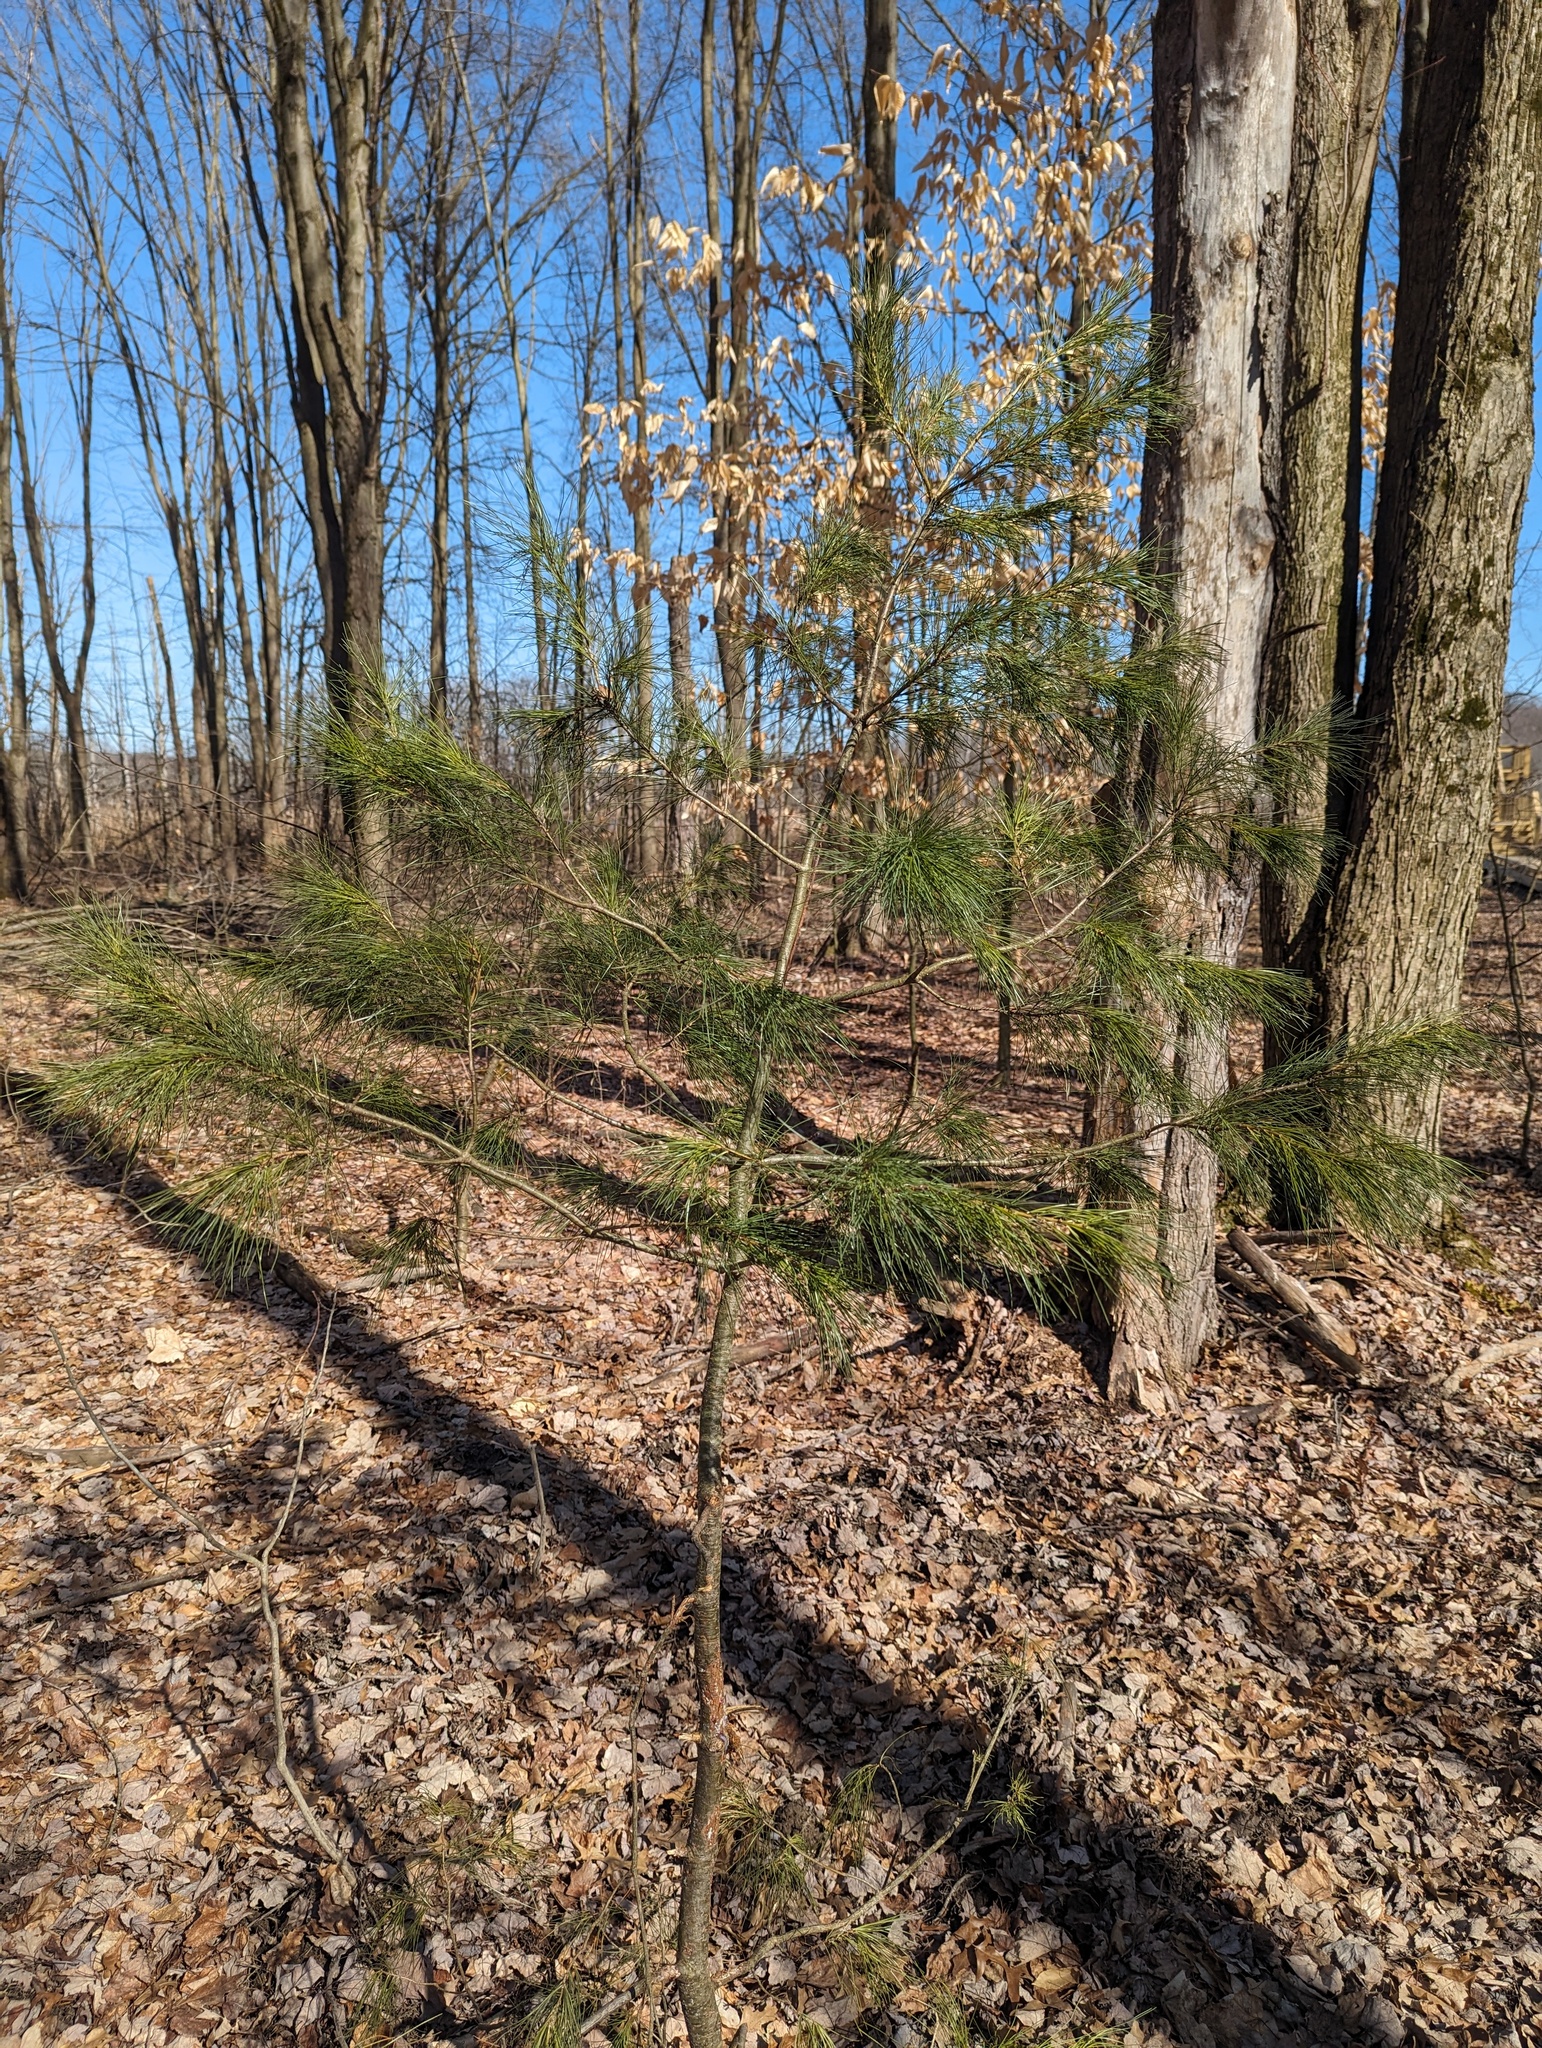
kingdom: Plantae
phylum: Tracheophyta
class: Pinopsida
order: Pinales
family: Pinaceae
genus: Pinus
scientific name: Pinus strobus
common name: Weymouth pine
